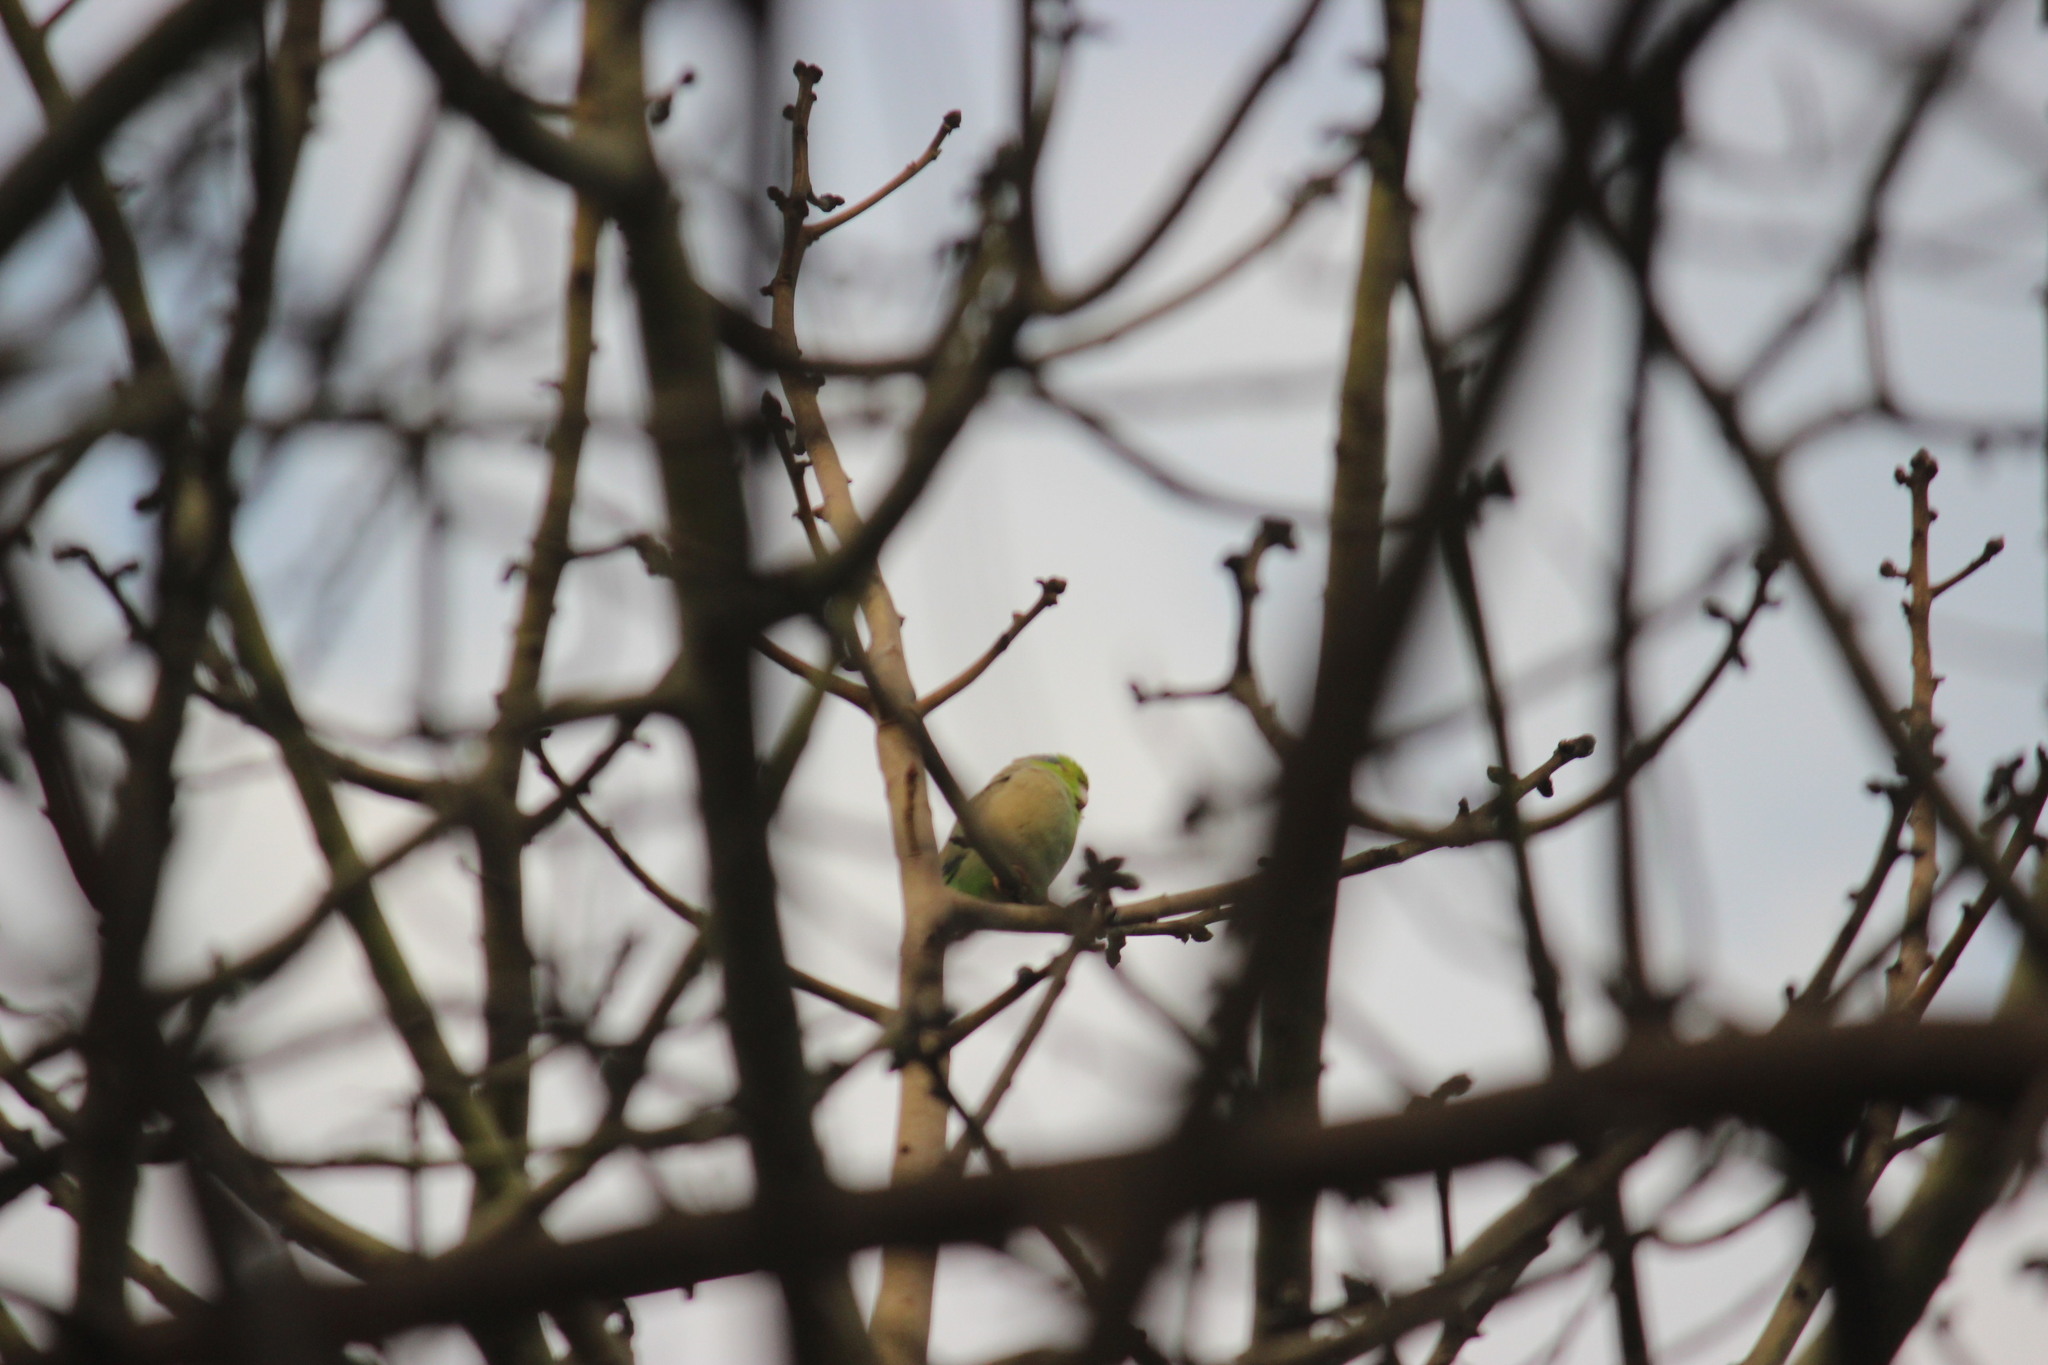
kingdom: Animalia
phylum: Chordata
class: Aves
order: Psittaciformes
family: Psittacidae
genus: Forpus
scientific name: Forpus coelestis
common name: Pacific parrotlet
